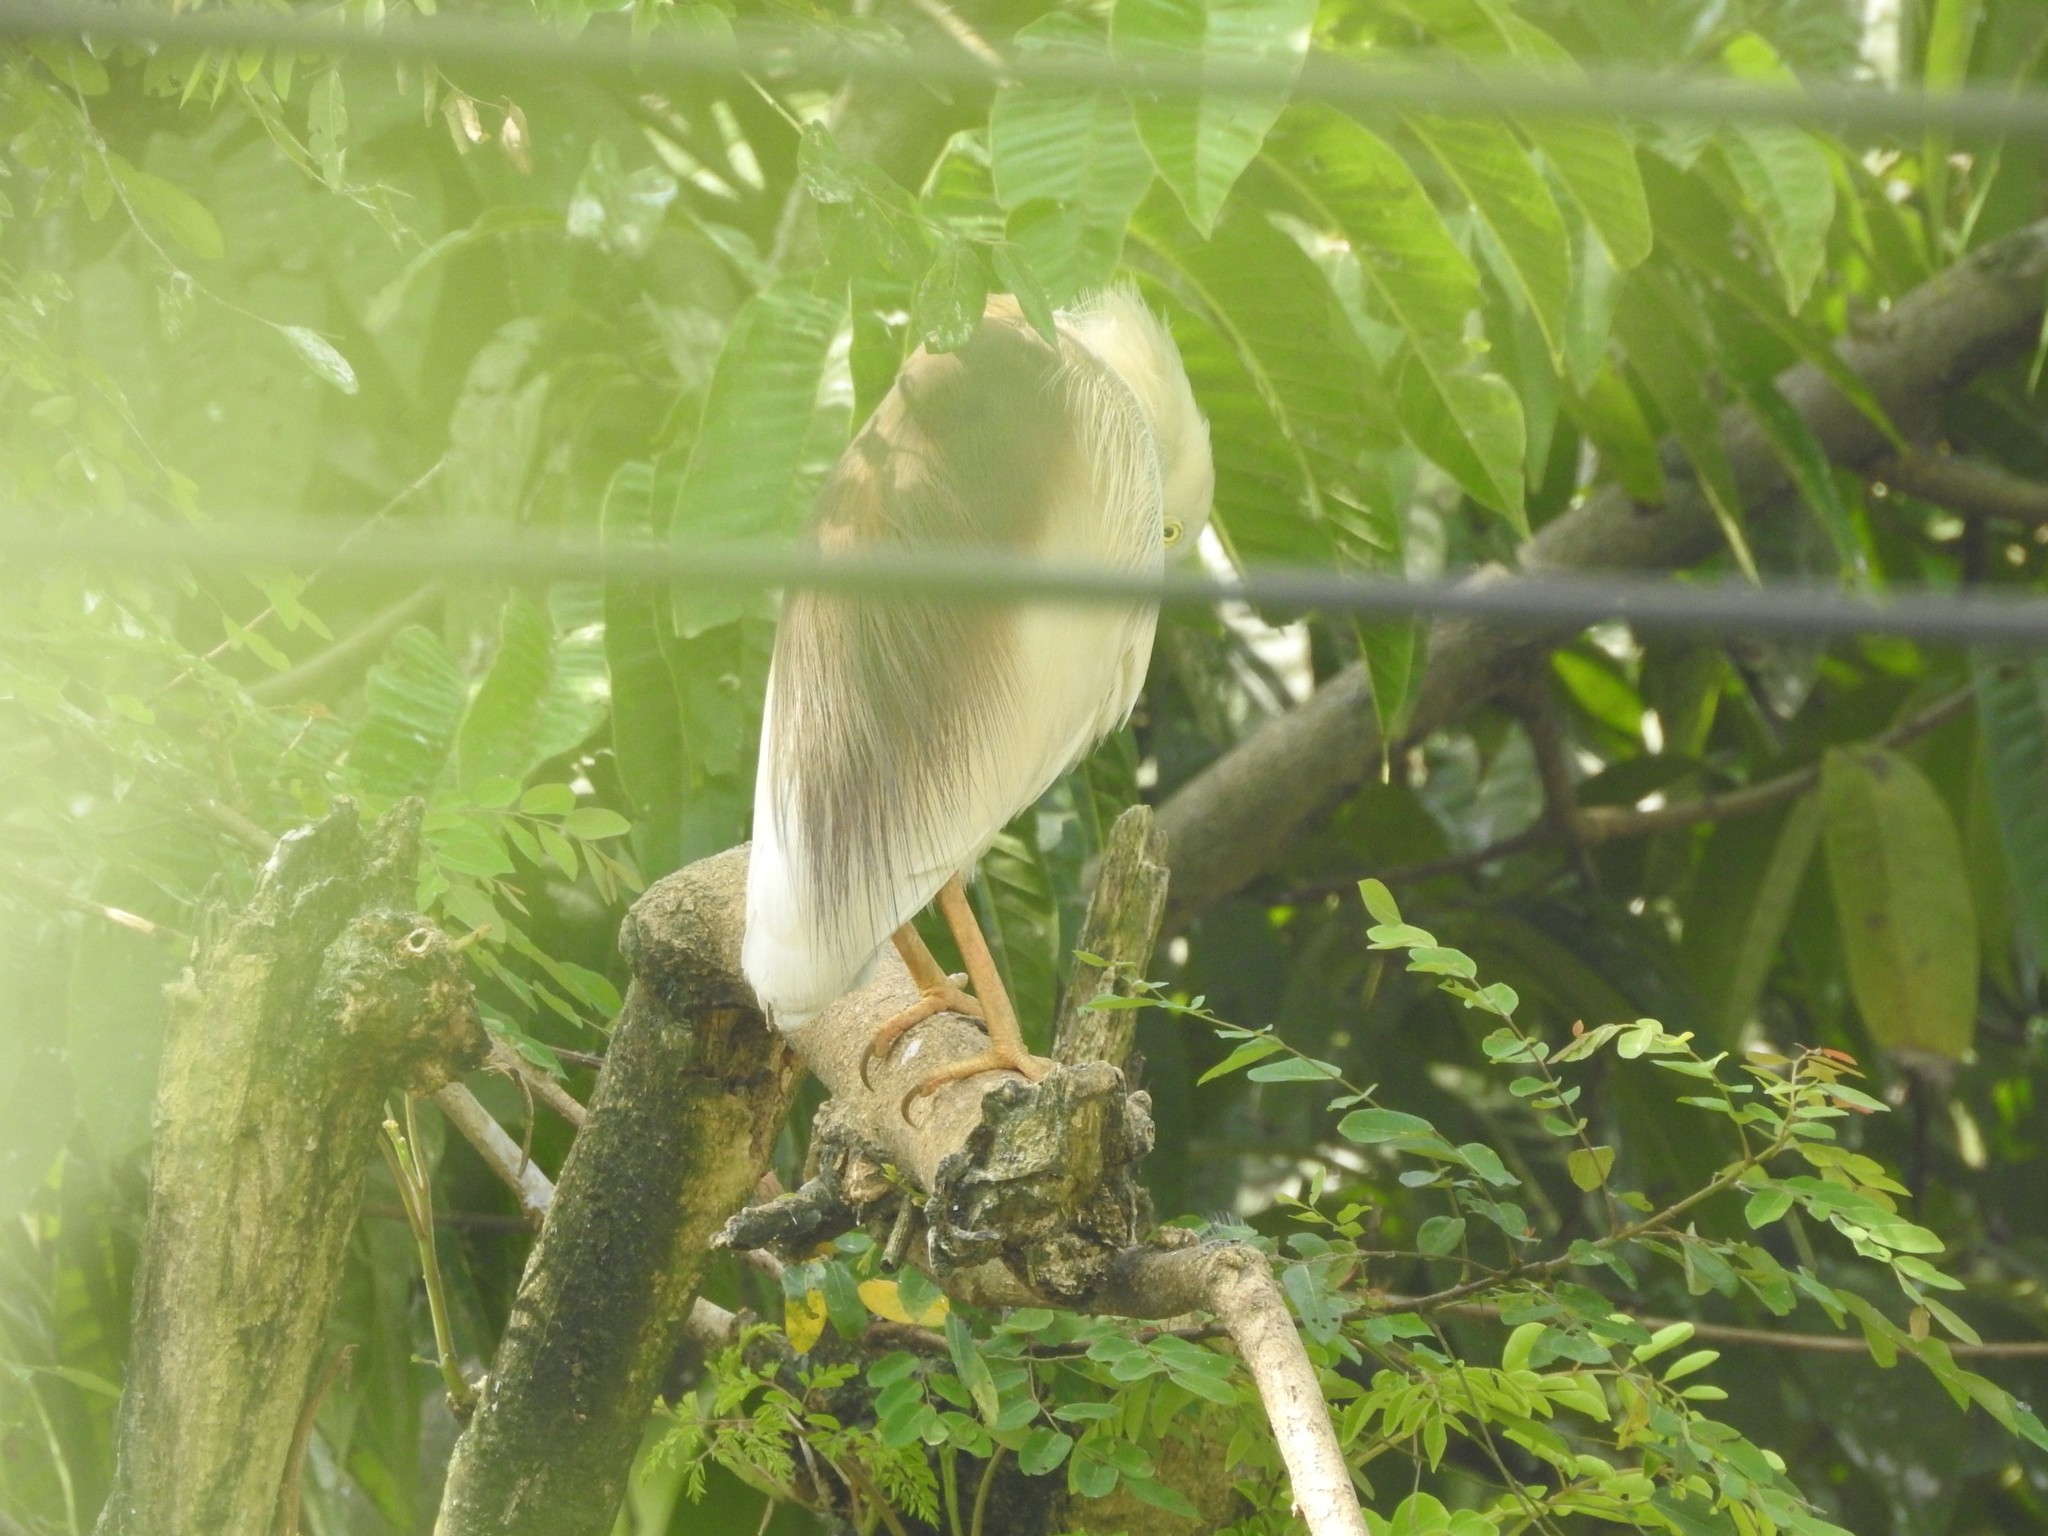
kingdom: Animalia
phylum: Chordata
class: Aves
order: Pelecaniformes
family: Ardeidae
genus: Ardeola
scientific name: Ardeola grayii
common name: Indian pond heron
